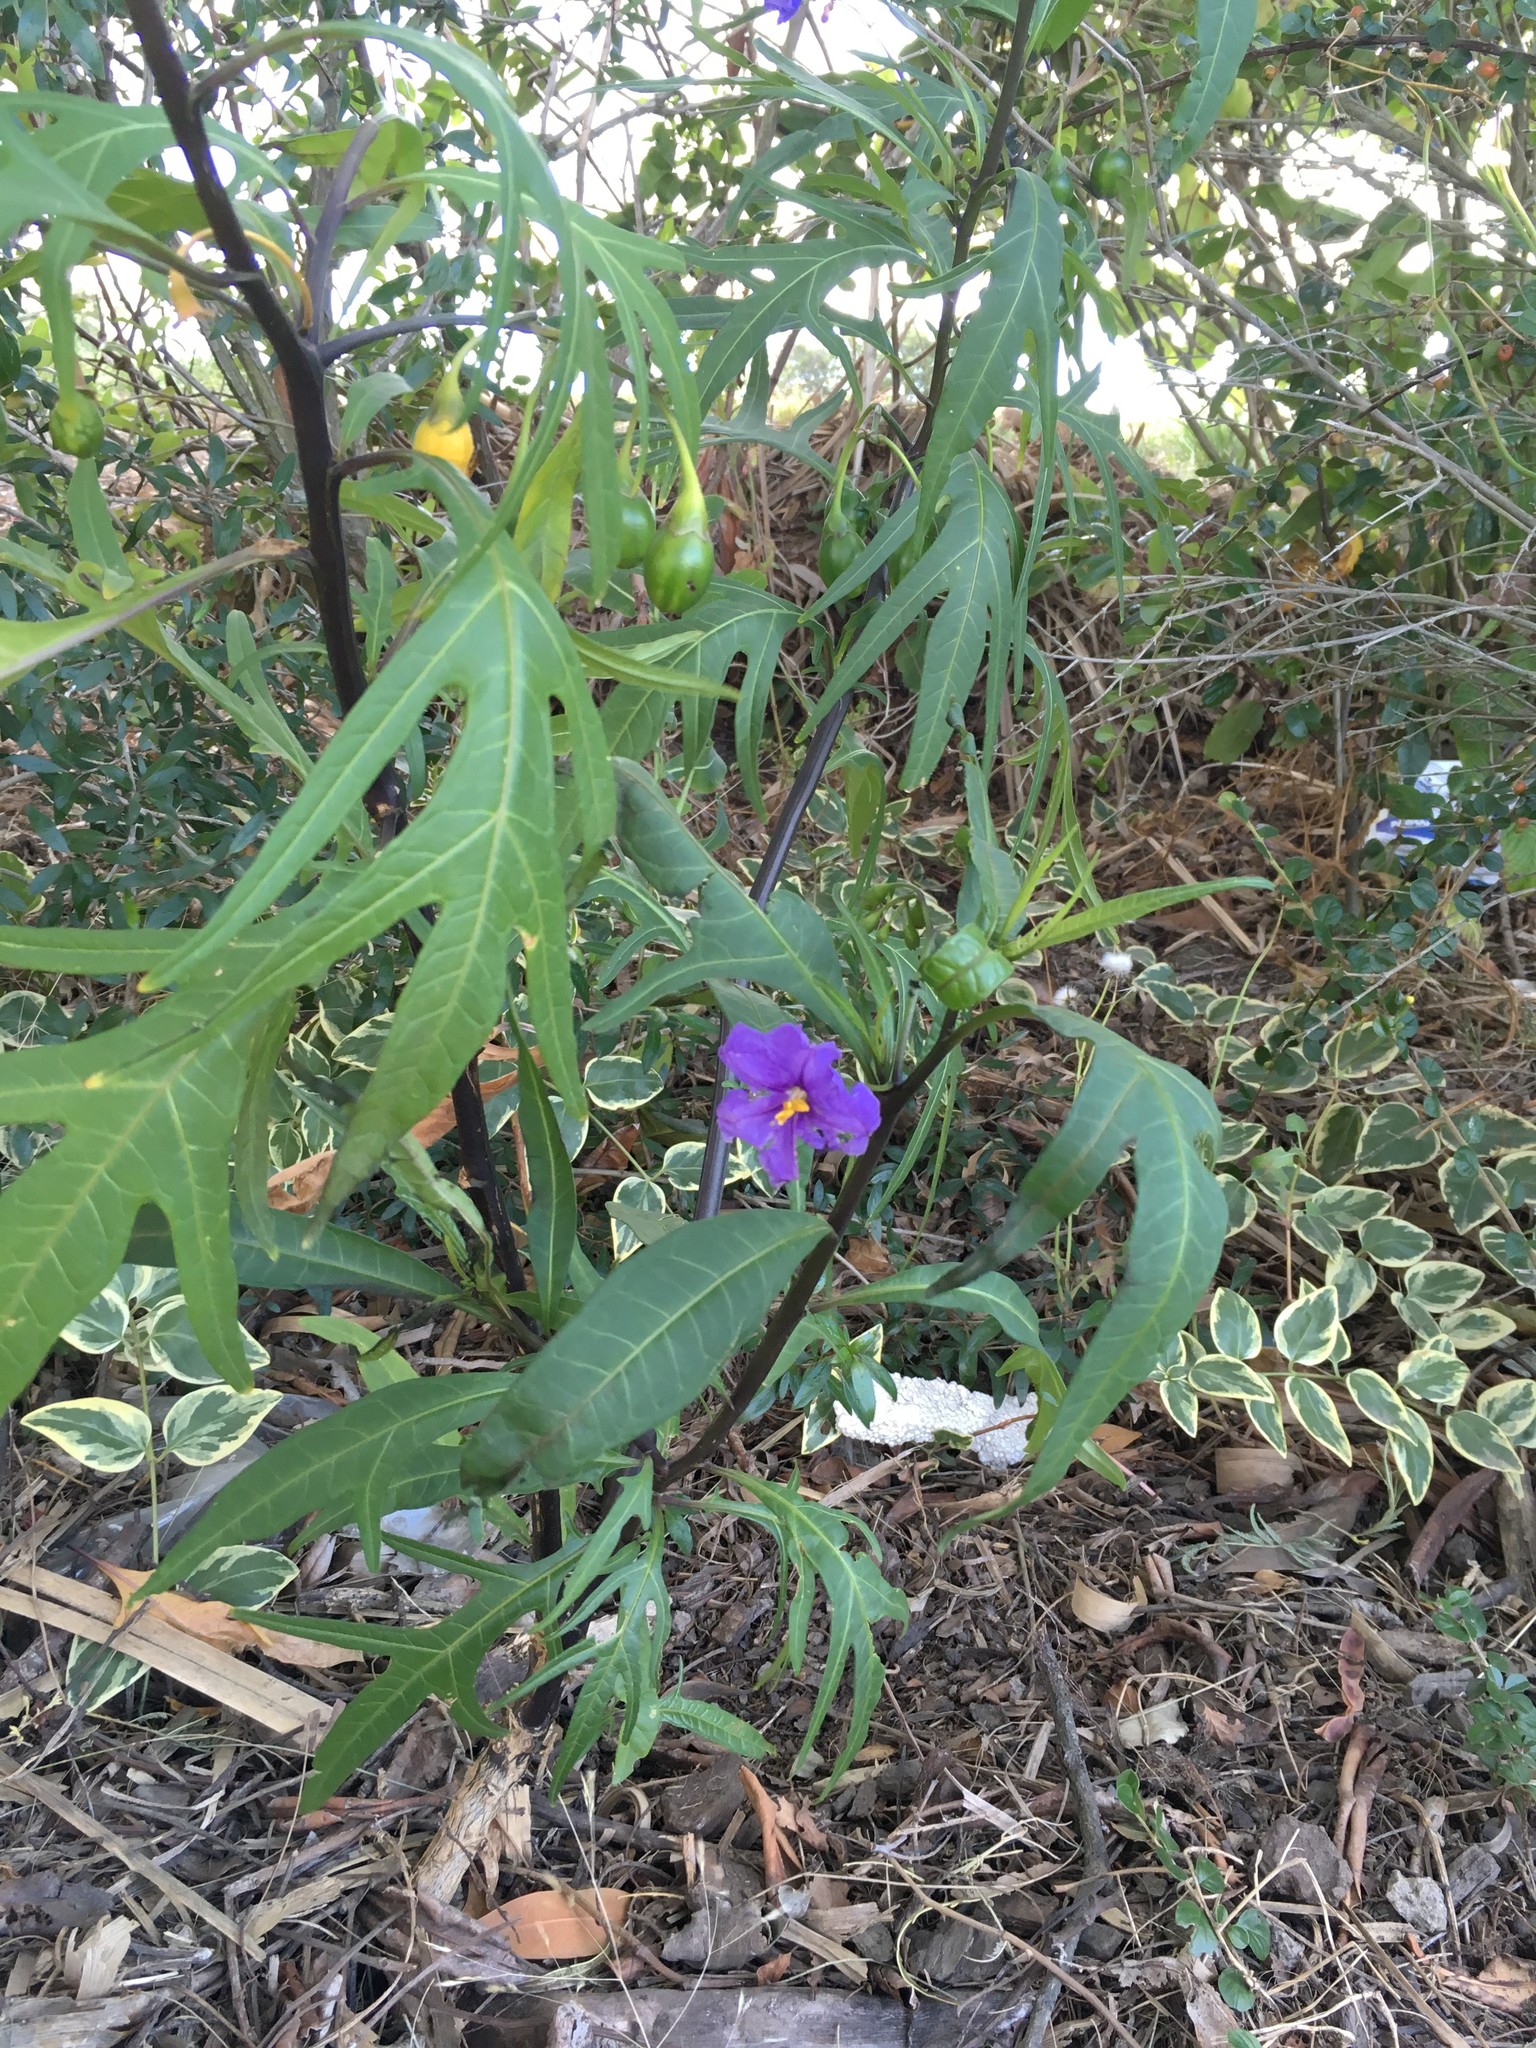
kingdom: Plantae
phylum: Tracheophyta
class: Magnoliopsida
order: Solanales
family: Solanaceae
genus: Solanum
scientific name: Solanum laciniatum
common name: Kangaroo-apple
